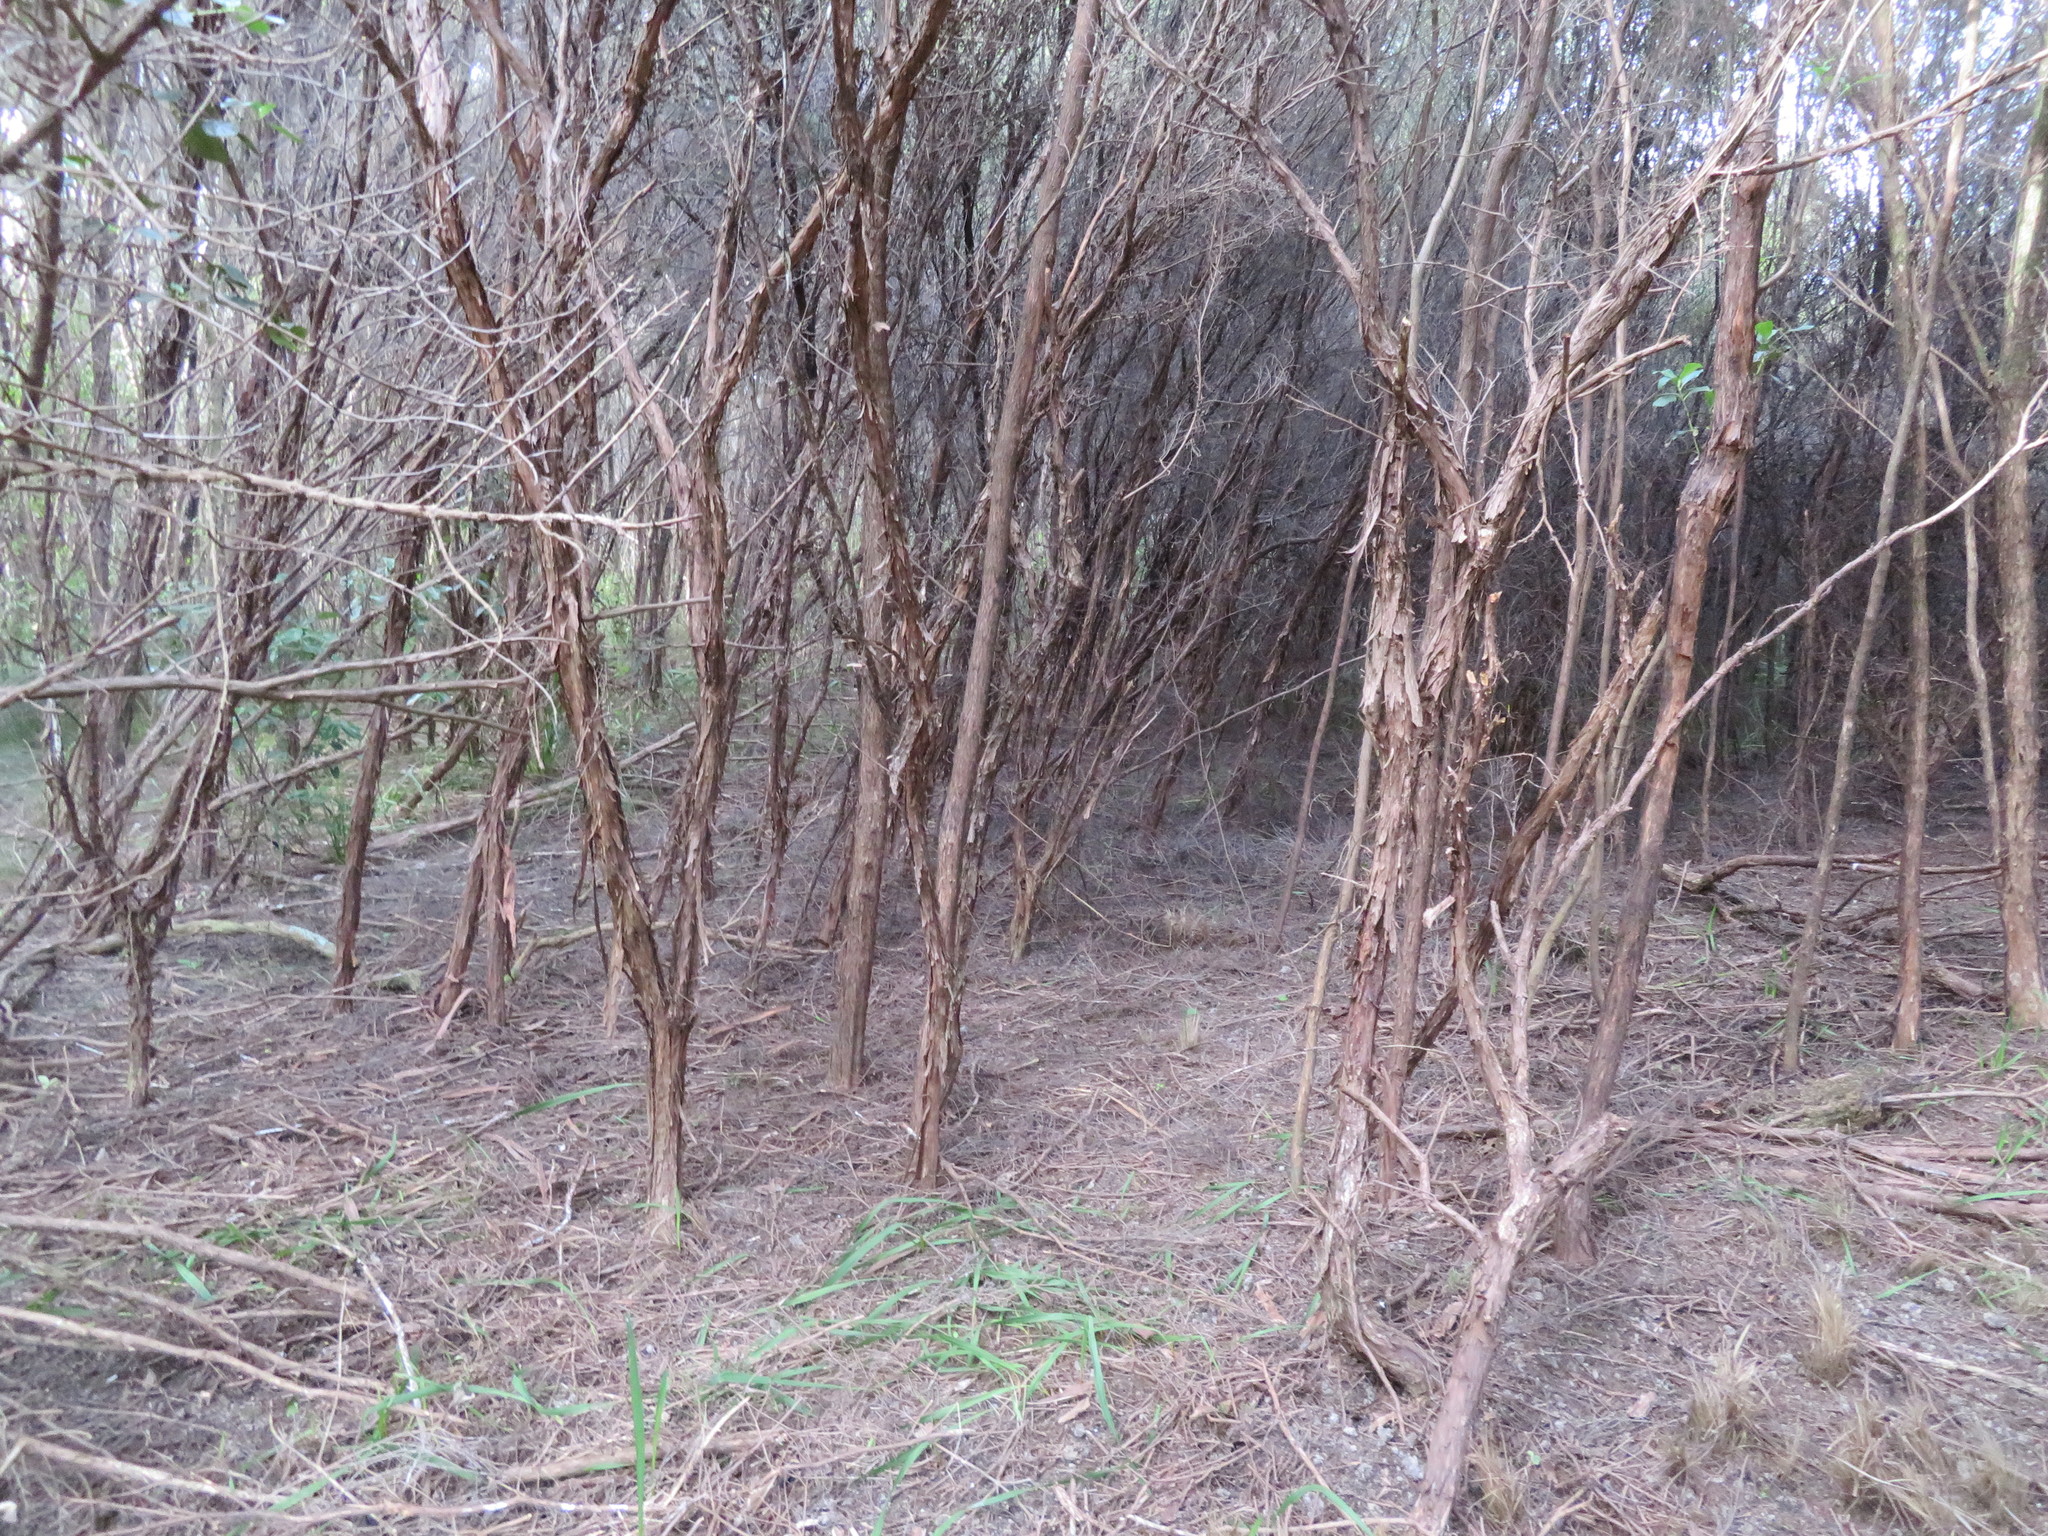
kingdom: Plantae
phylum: Tracheophyta
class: Magnoliopsida
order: Myrtales
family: Myrtaceae
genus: Leptospermum
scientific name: Leptospermum scoparium
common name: Broom tea-tree
